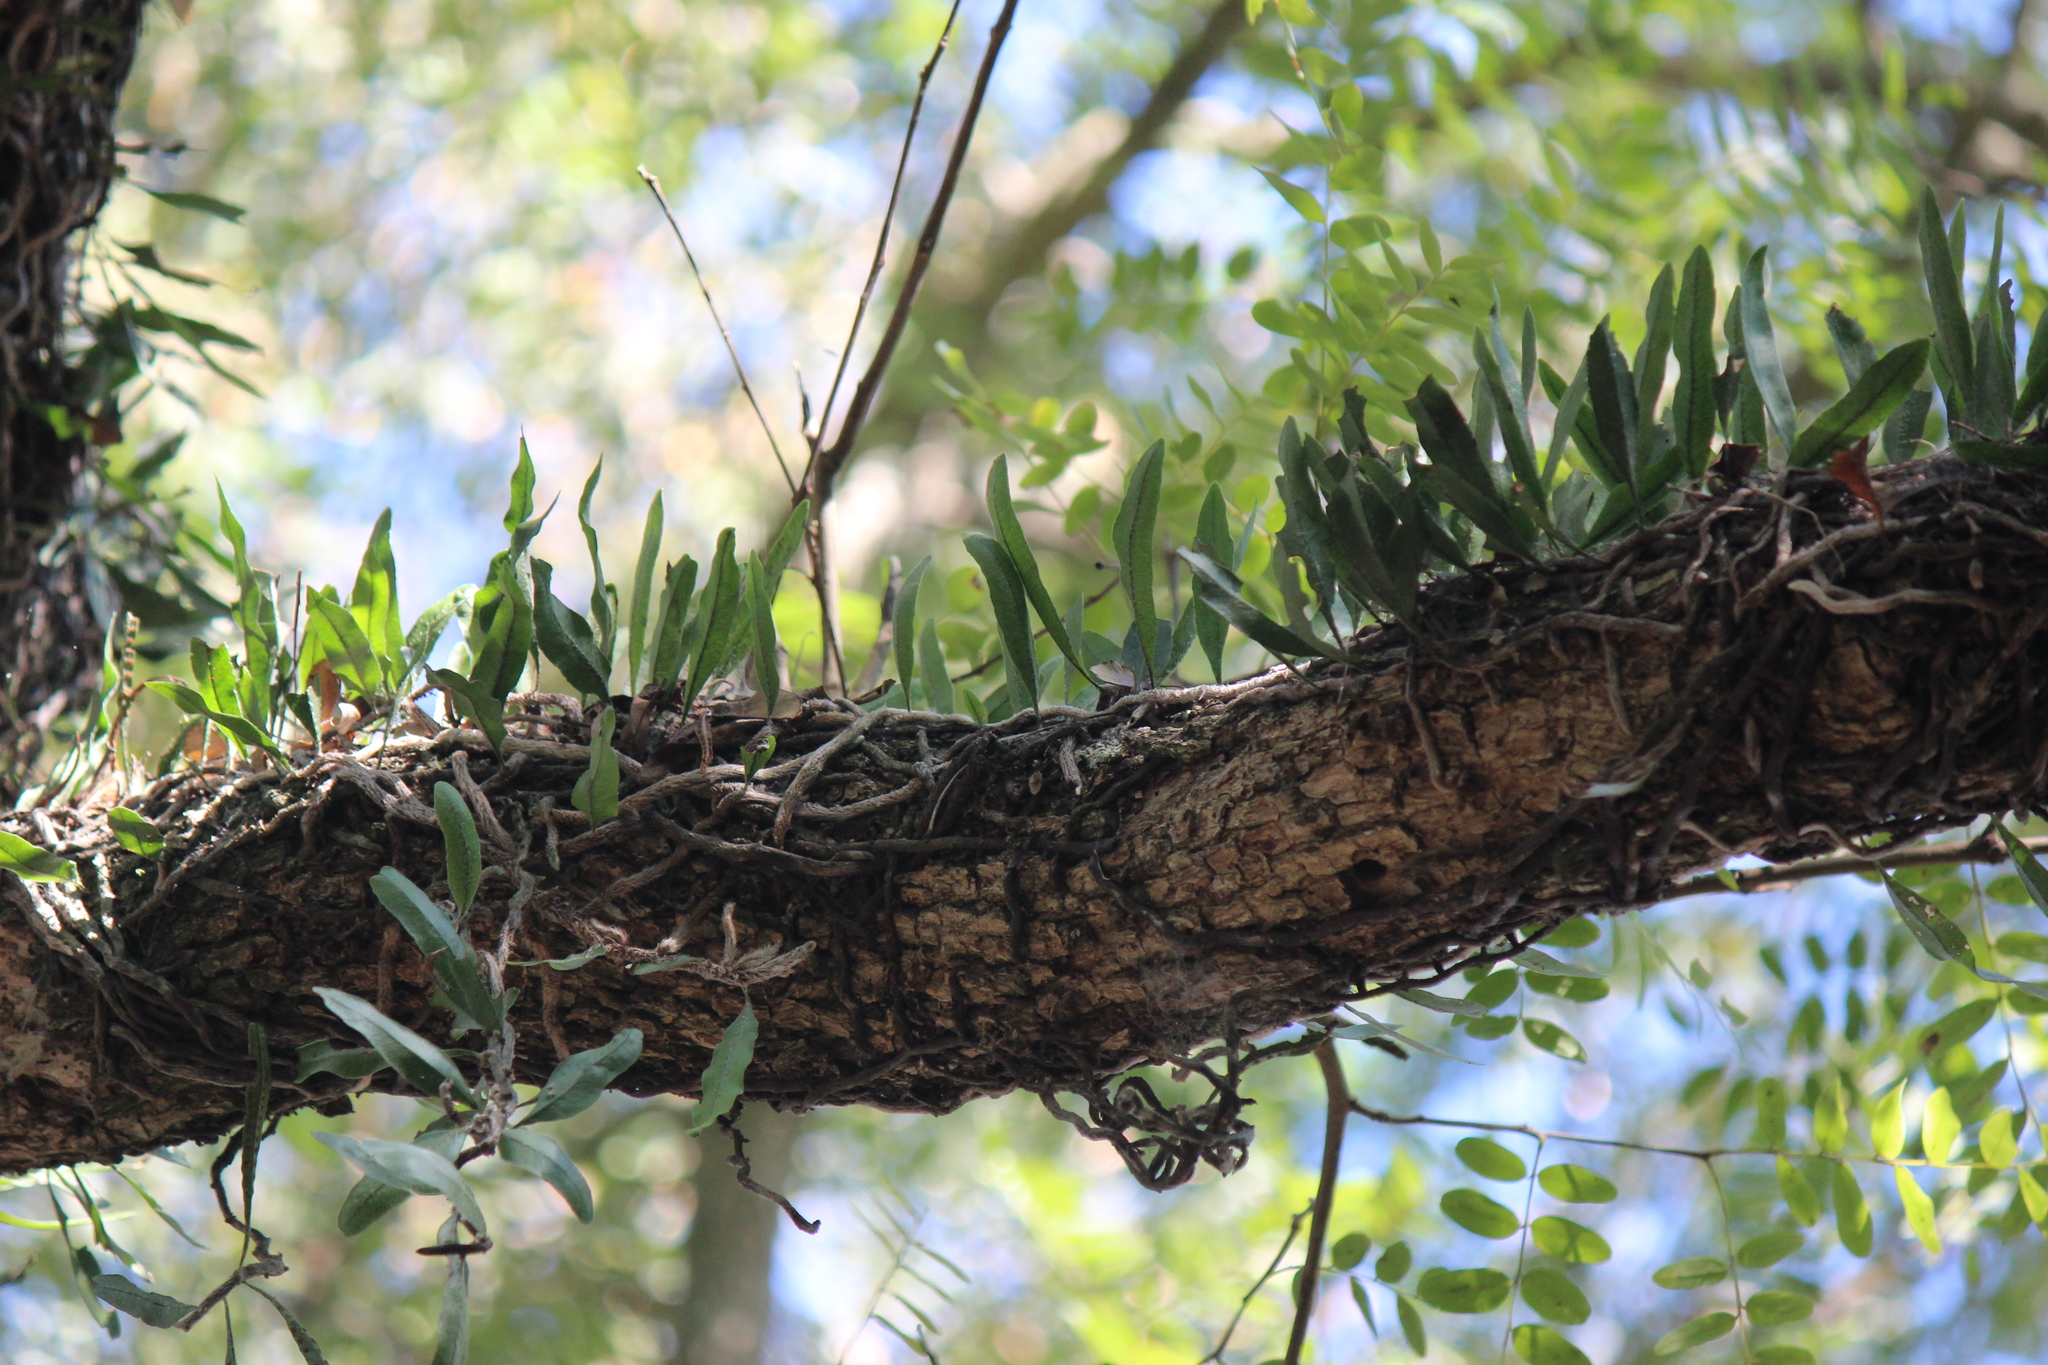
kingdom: Plantae
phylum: Tracheophyta
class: Polypodiopsida
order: Polypodiales
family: Polypodiaceae
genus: Microgramma
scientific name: Microgramma mortoniana
